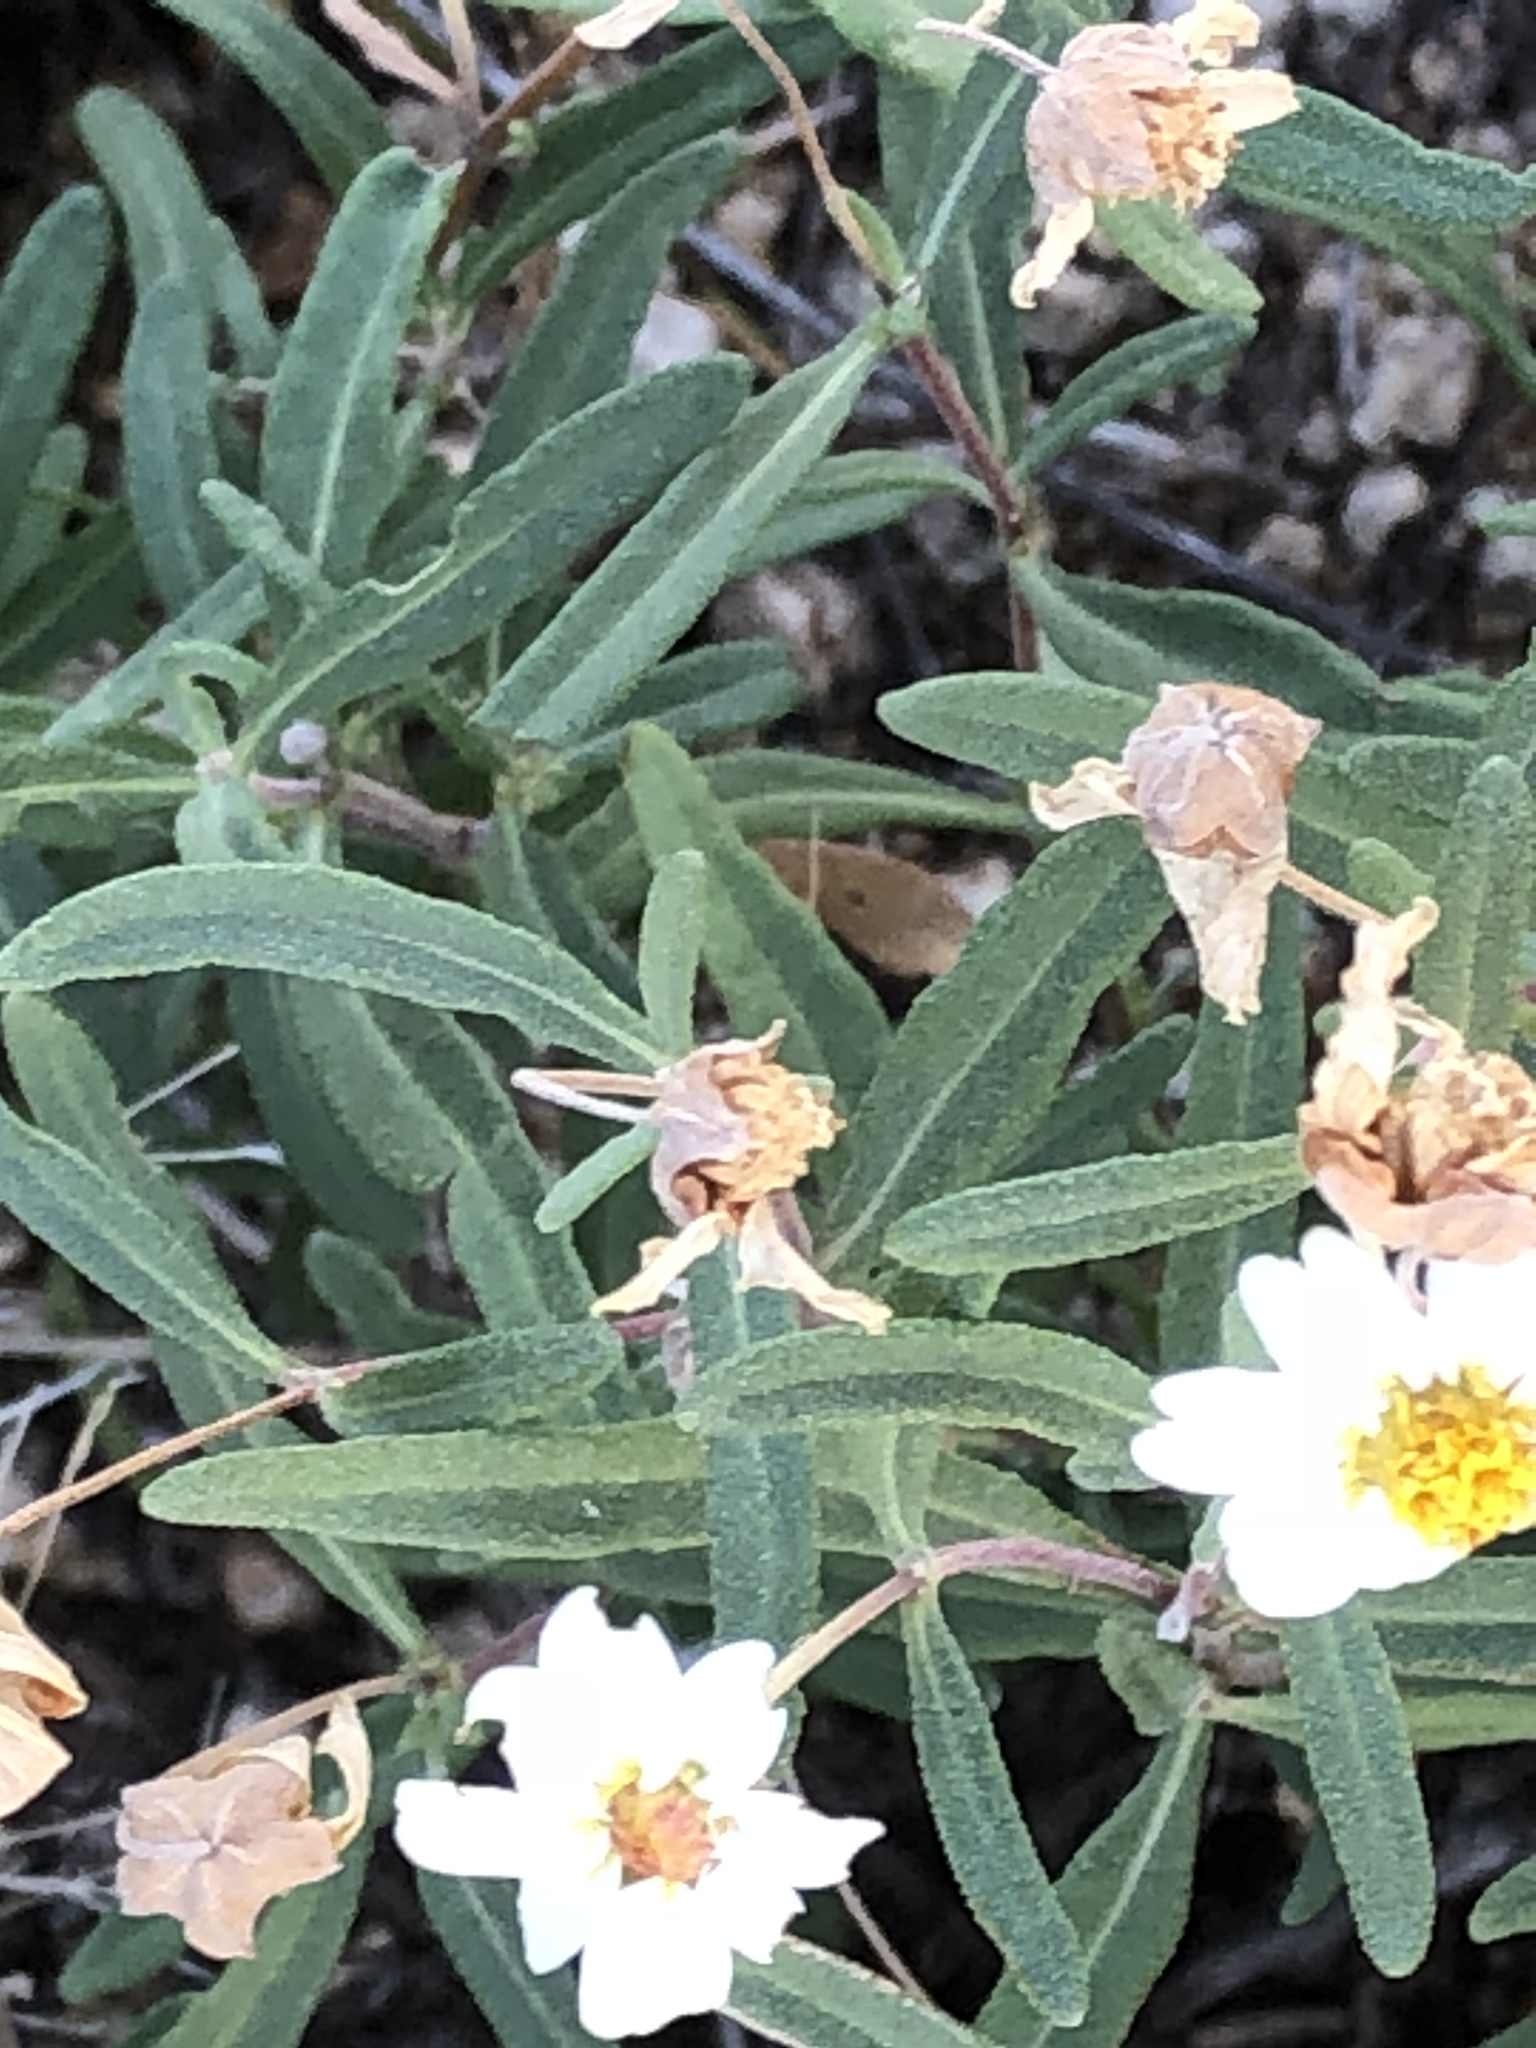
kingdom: Plantae
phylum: Tracheophyta
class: Magnoliopsida
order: Asterales
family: Asteraceae
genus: Melampodium
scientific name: Melampodium leucanthum
